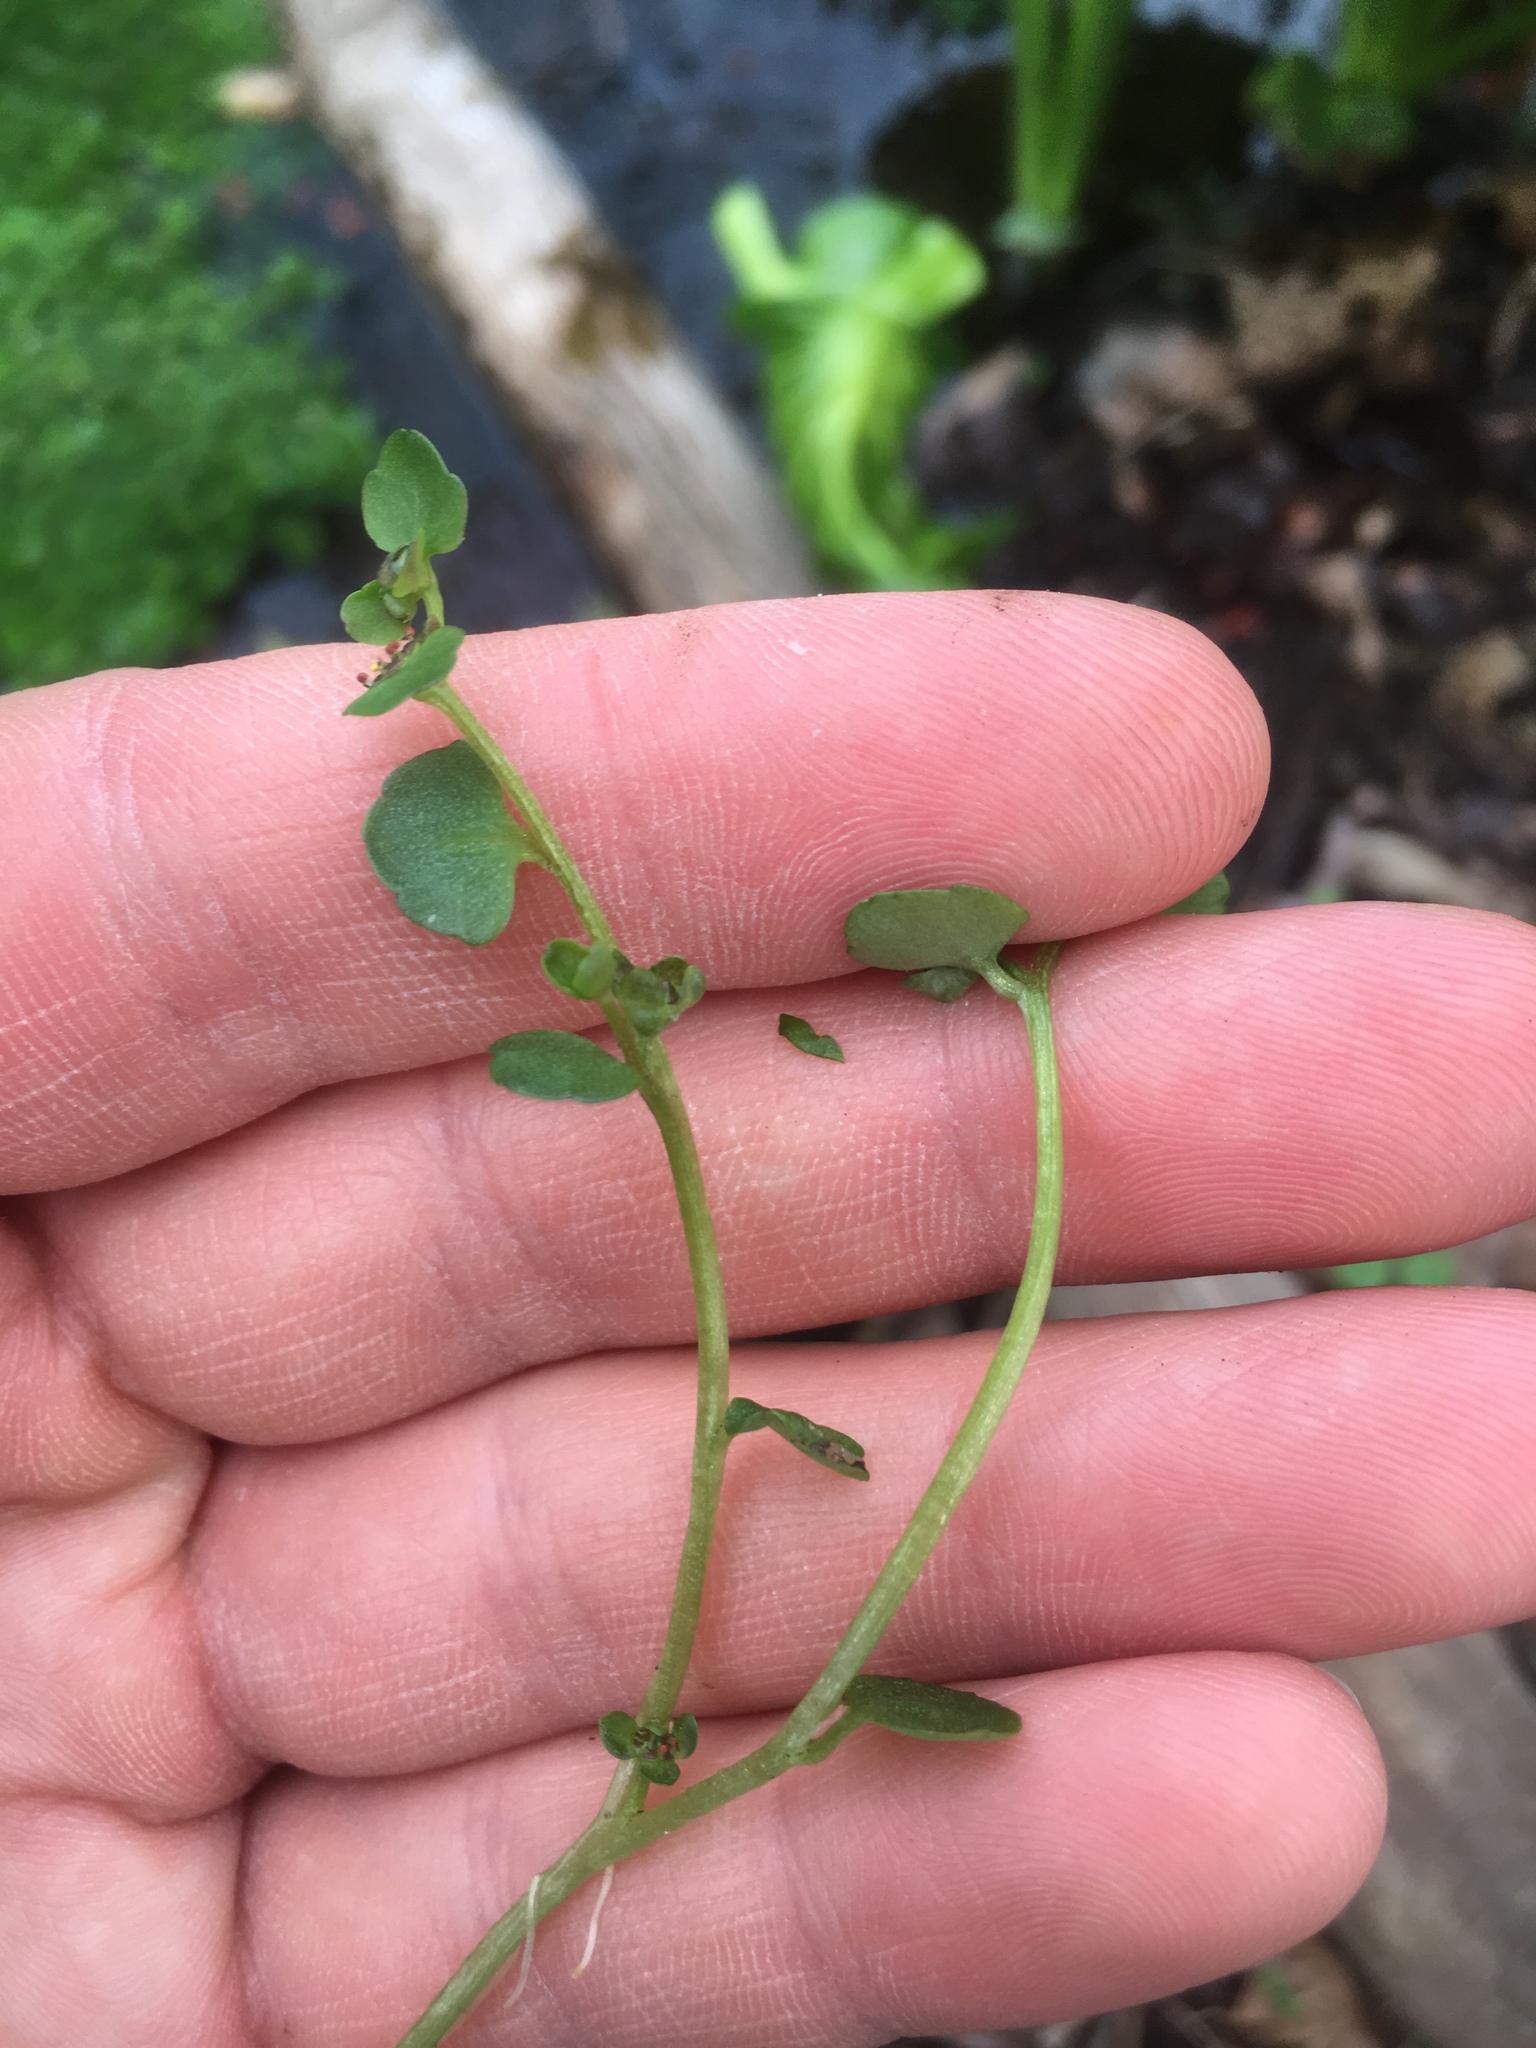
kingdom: Plantae
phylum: Tracheophyta
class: Magnoliopsida
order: Saxifragales
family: Saxifragaceae
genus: Chrysosplenium
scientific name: Chrysosplenium americanum
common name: American golden-saxifrage
